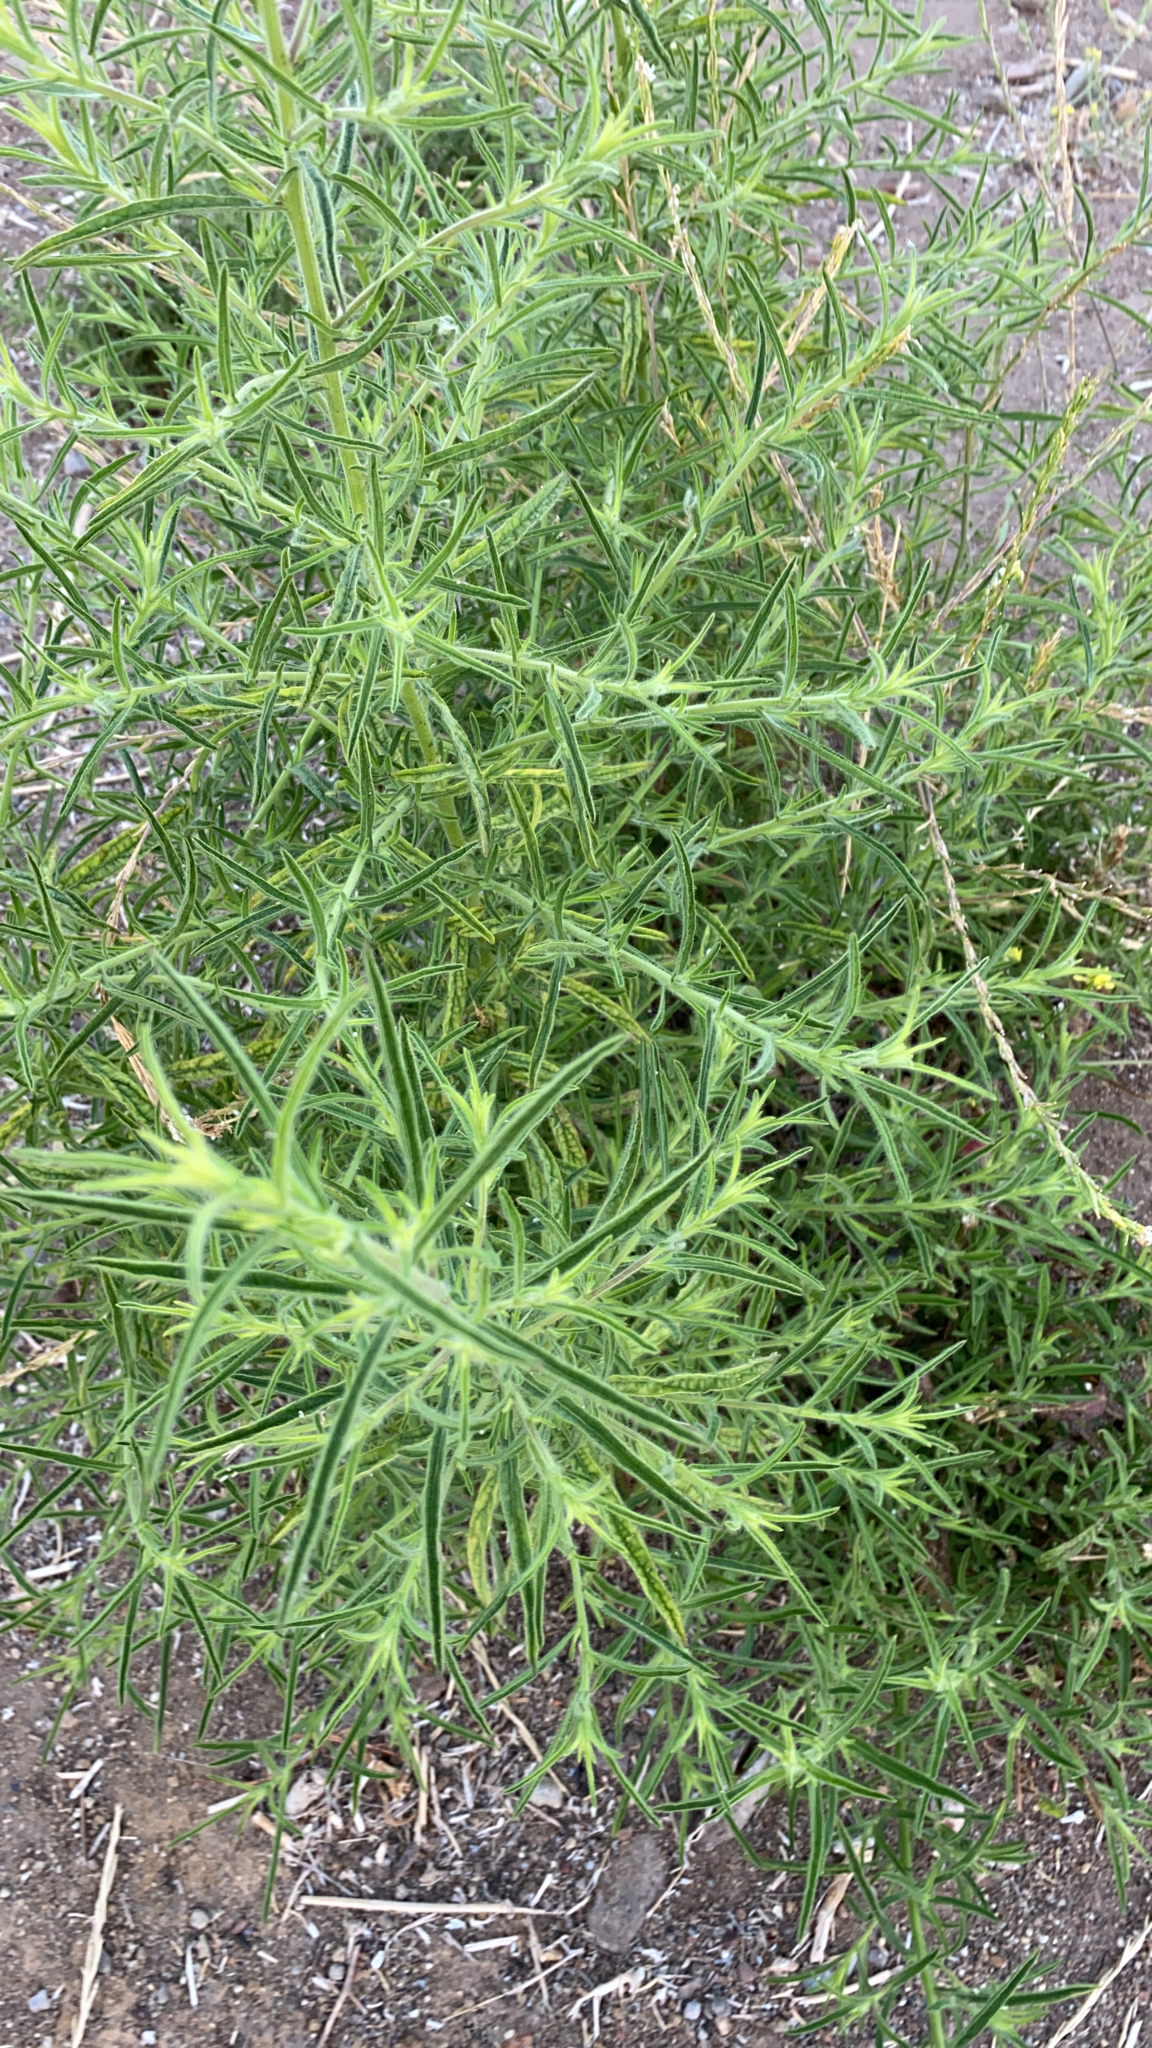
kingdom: Plantae
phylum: Tracheophyta
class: Magnoliopsida
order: Asterales
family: Asteraceae
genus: Dittrichia
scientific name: Dittrichia graveolens
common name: Stinking fleabane
